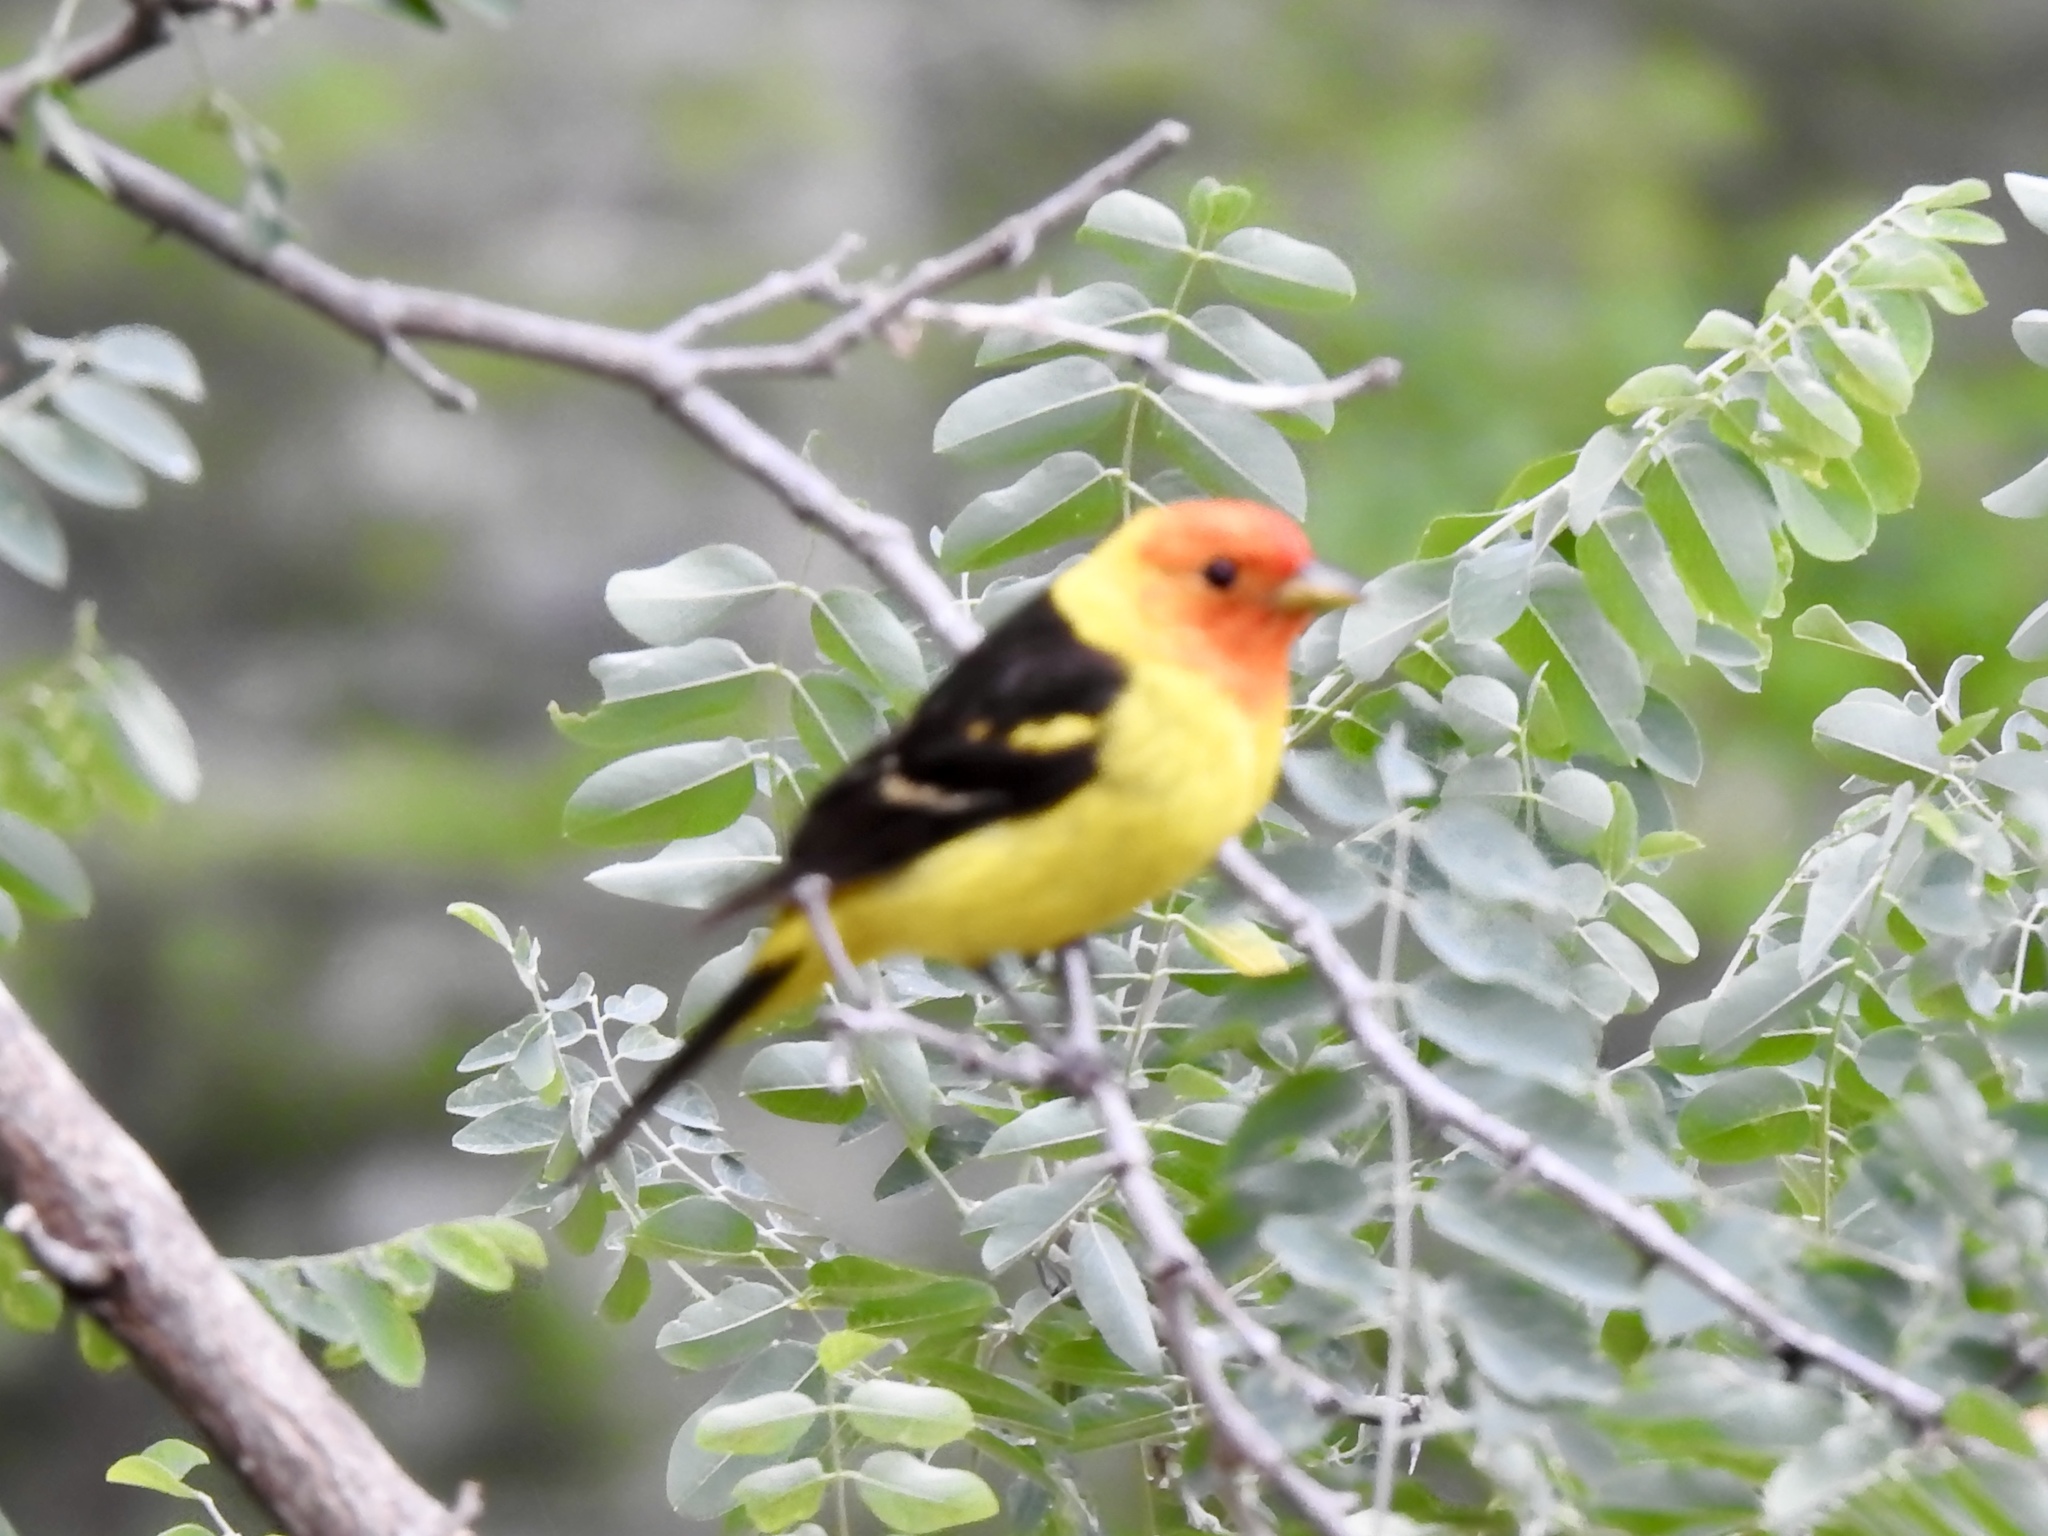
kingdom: Animalia
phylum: Chordata
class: Aves
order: Passeriformes
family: Cardinalidae
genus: Piranga
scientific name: Piranga ludoviciana
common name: Western tanager
